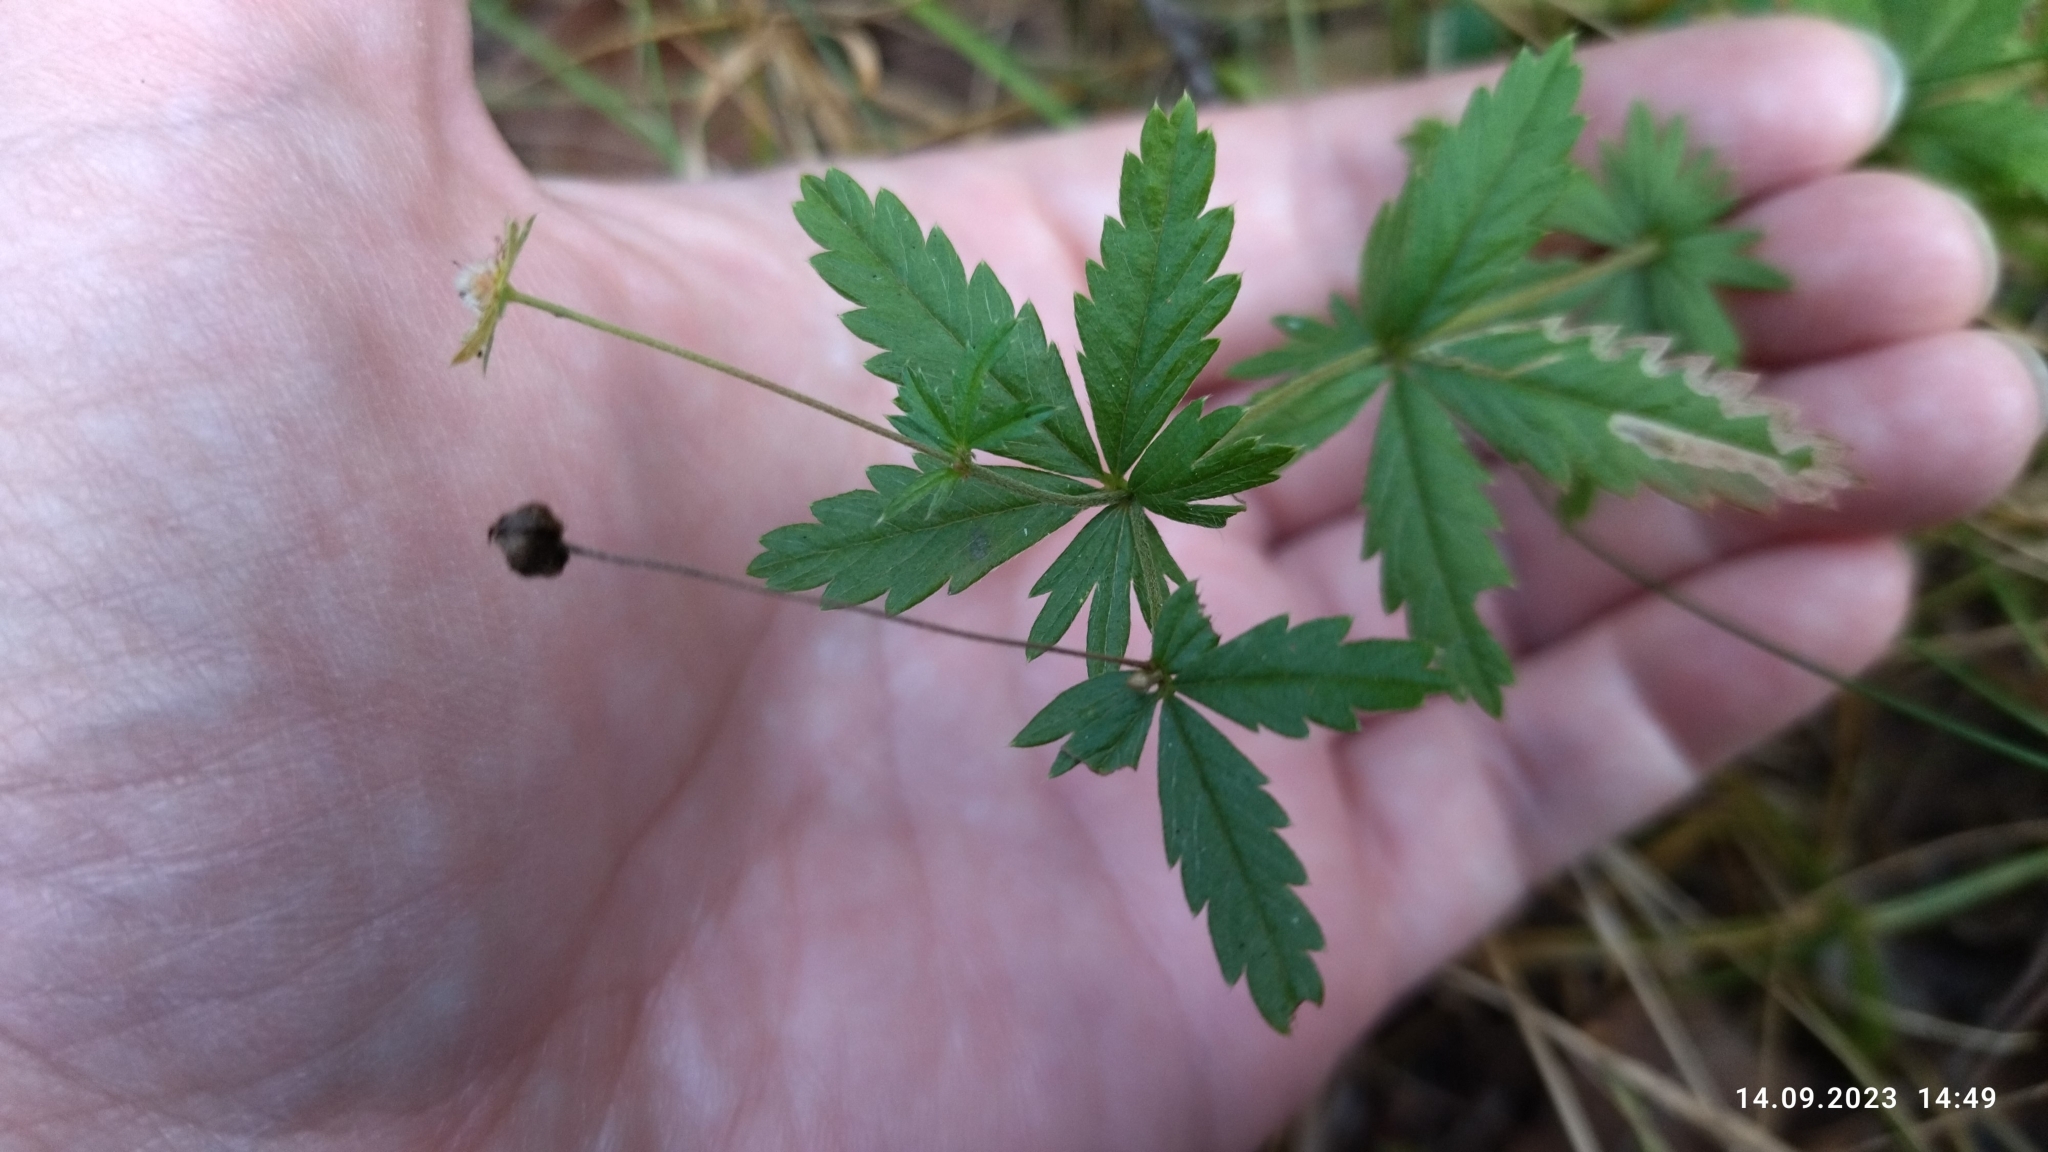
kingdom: Plantae
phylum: Tracheophyta
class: Magnoliopsida
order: Rosales
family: Rosaceae
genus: Potentilla
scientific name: Potentilla erecta
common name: Tormentil
